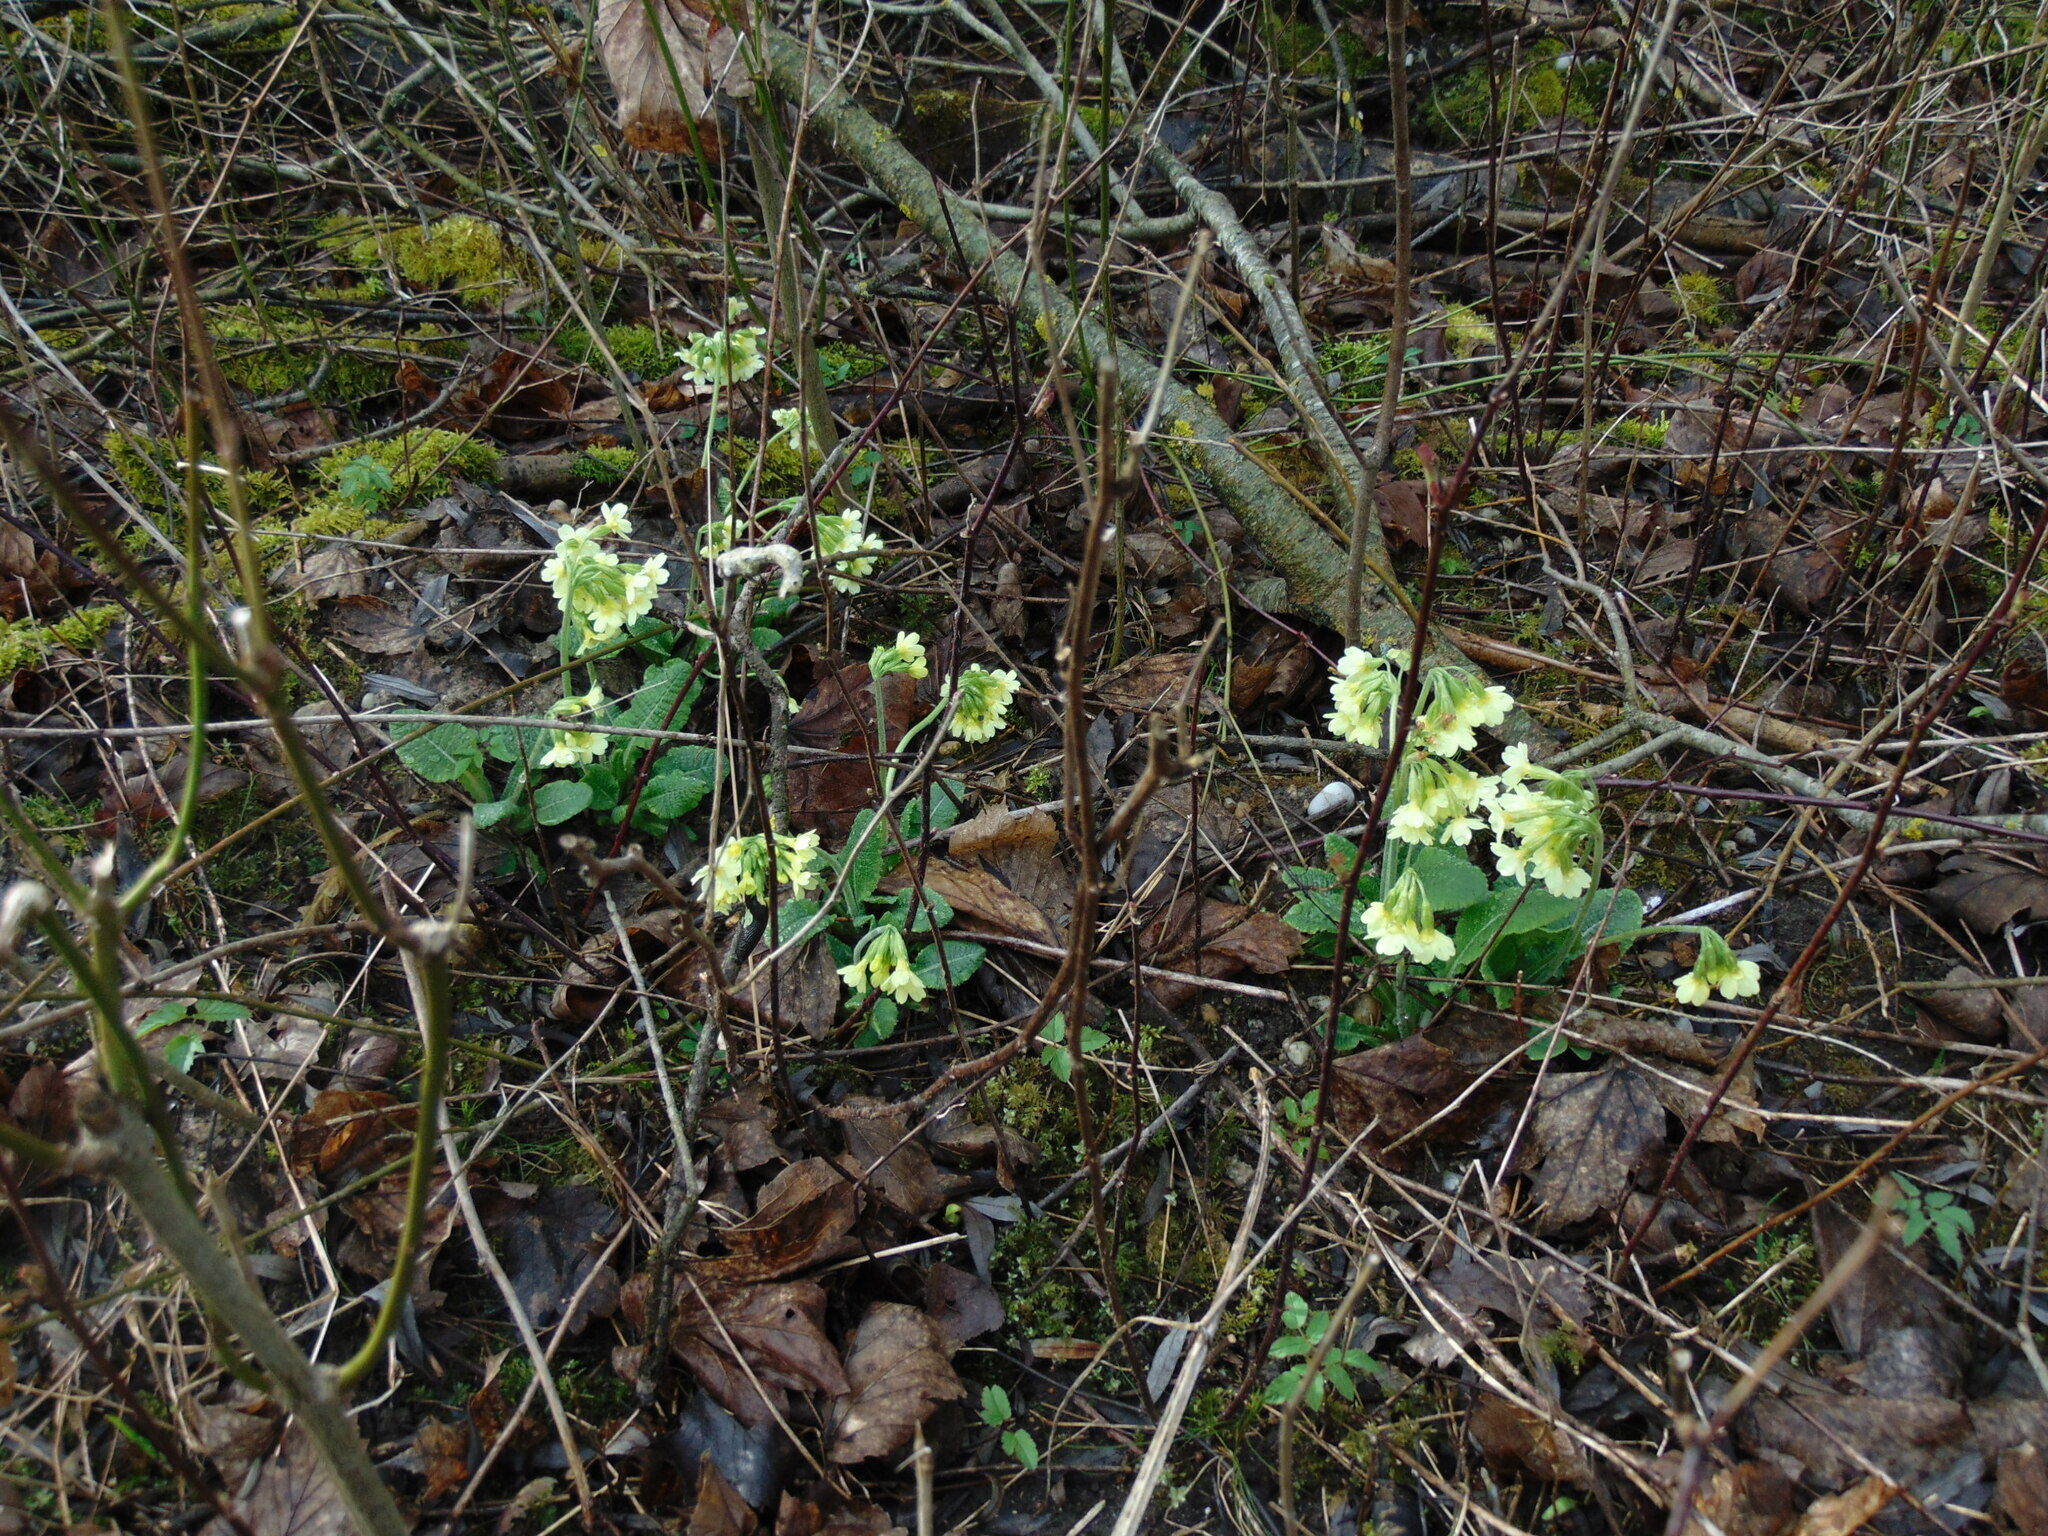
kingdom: Plantae
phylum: Tracheophyta
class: Magnoliopsida
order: Ericales
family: Primulaceae
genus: Primula
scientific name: Primula elatior
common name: Oxlip
